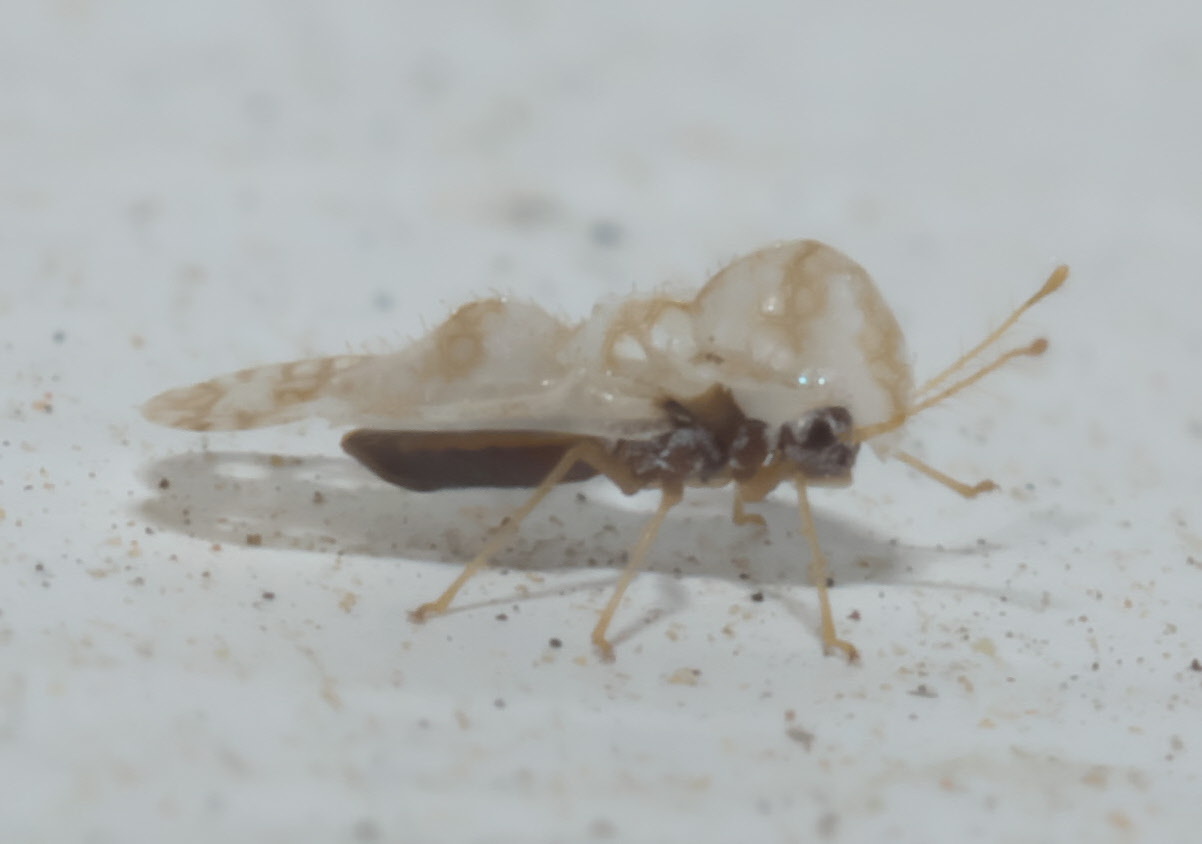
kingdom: Animalia
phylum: Arthropoda
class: Insecta
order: Hemiptera
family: Tingidae
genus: Corythucha
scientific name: Corythucha marmorata
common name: Chrysanthemum lace bug
